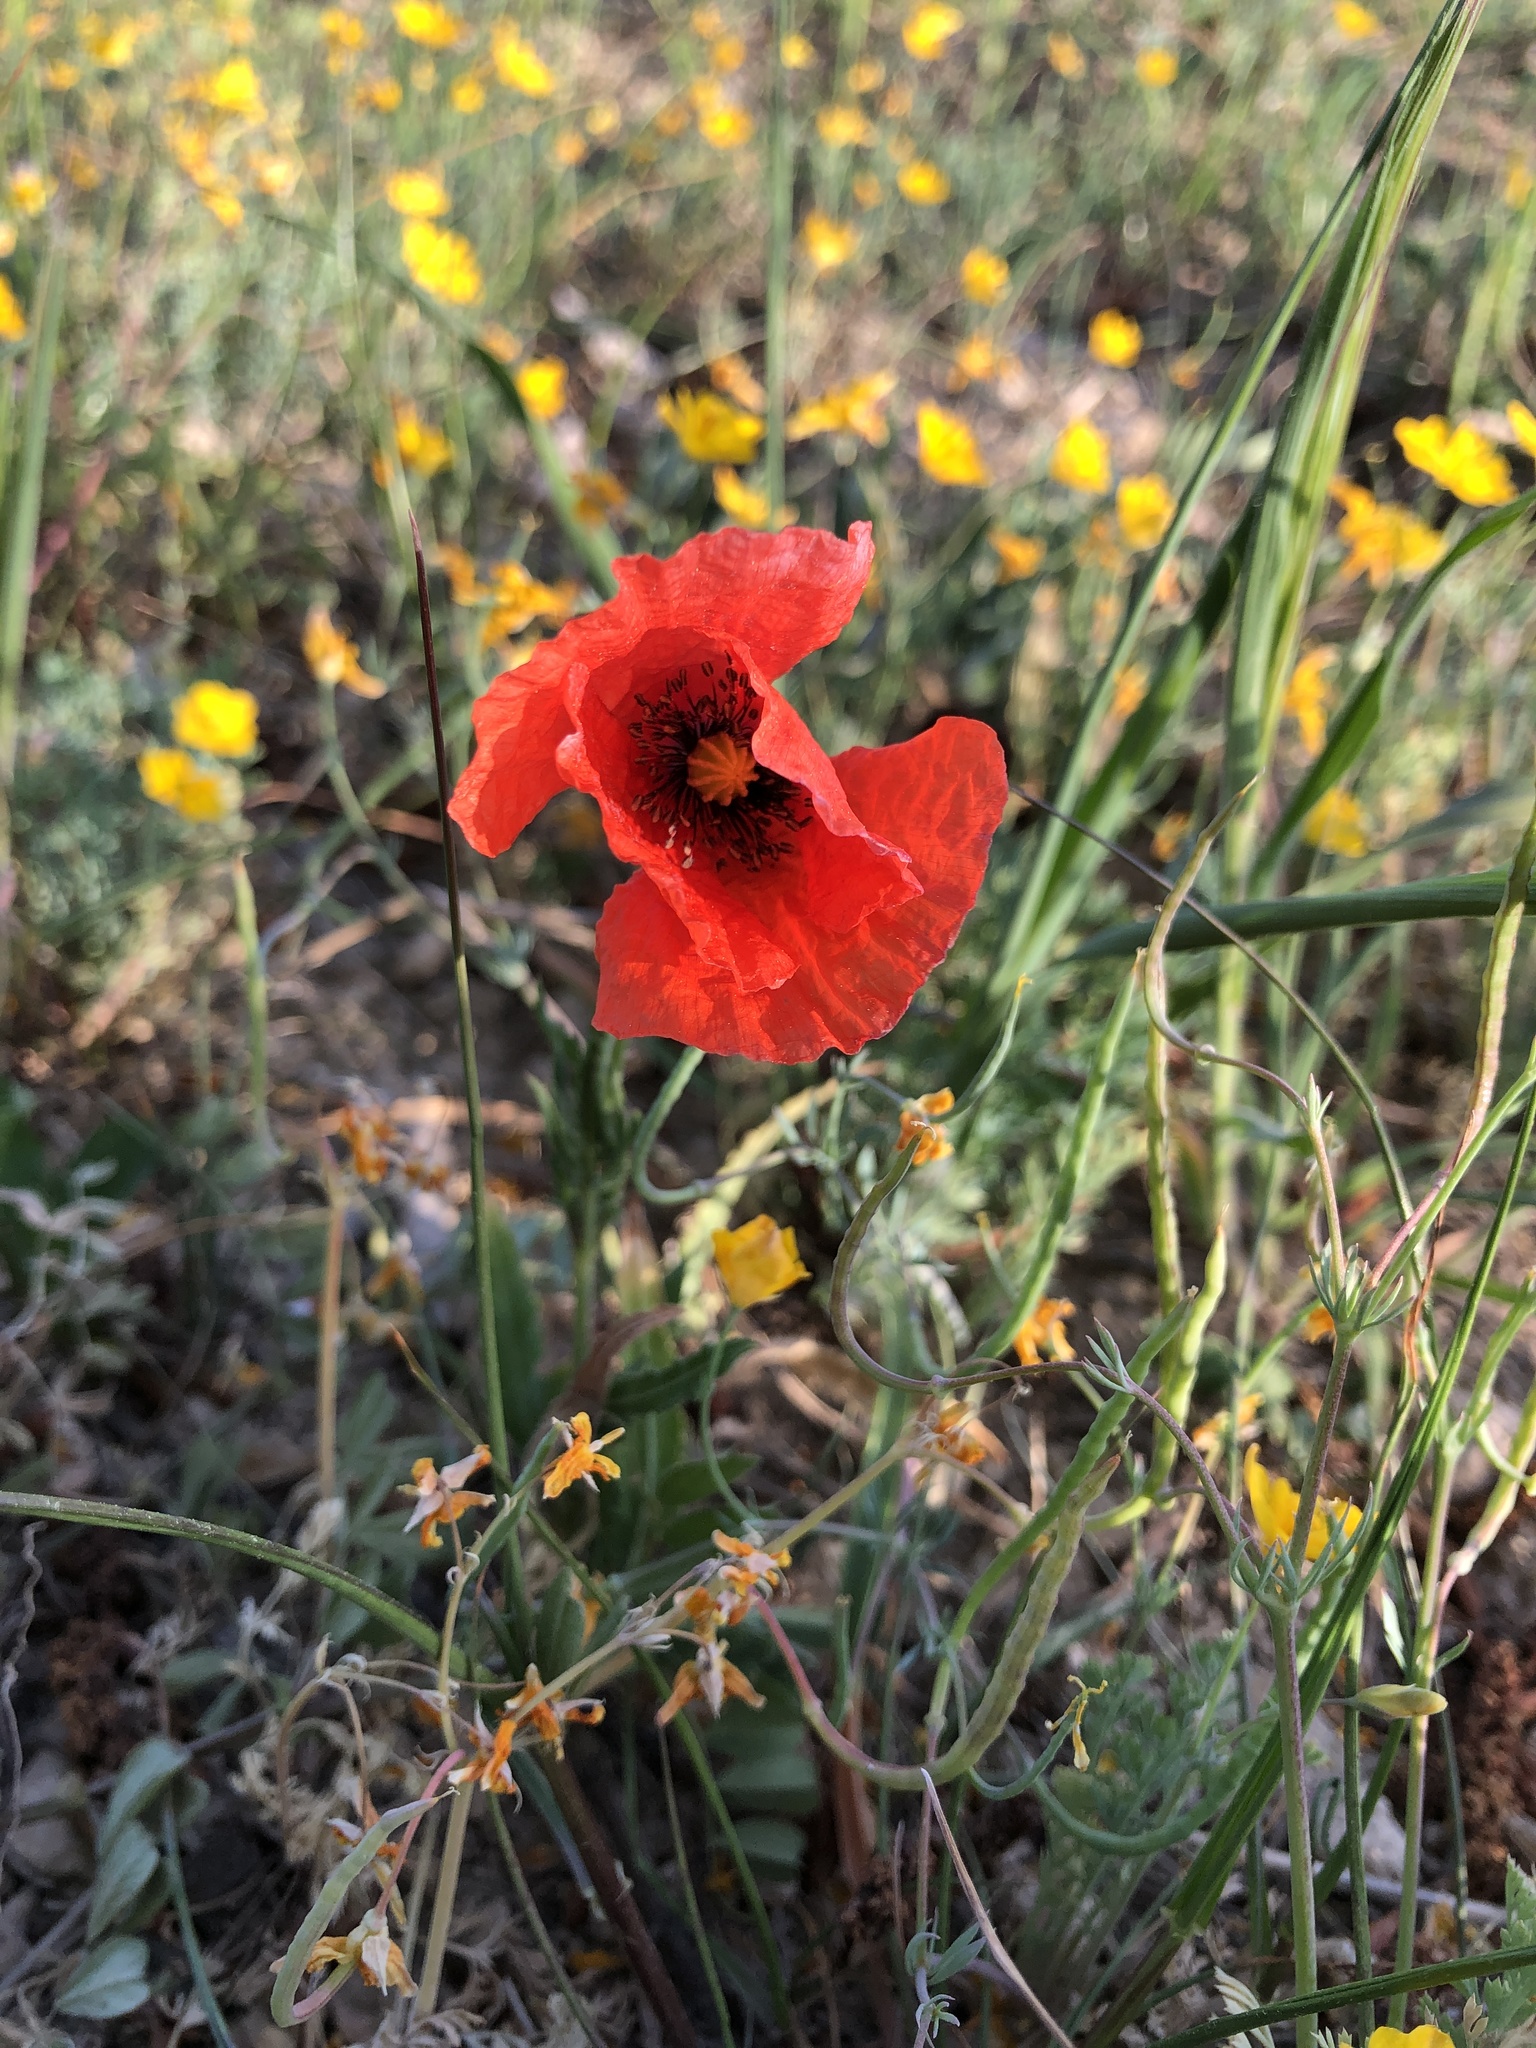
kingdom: Plantae
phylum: Tracheophyta
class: Magnoliopsida
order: Ranunculales
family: Papaveraceae
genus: Papaver
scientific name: Papaver rhoeas
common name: Corn poppy
